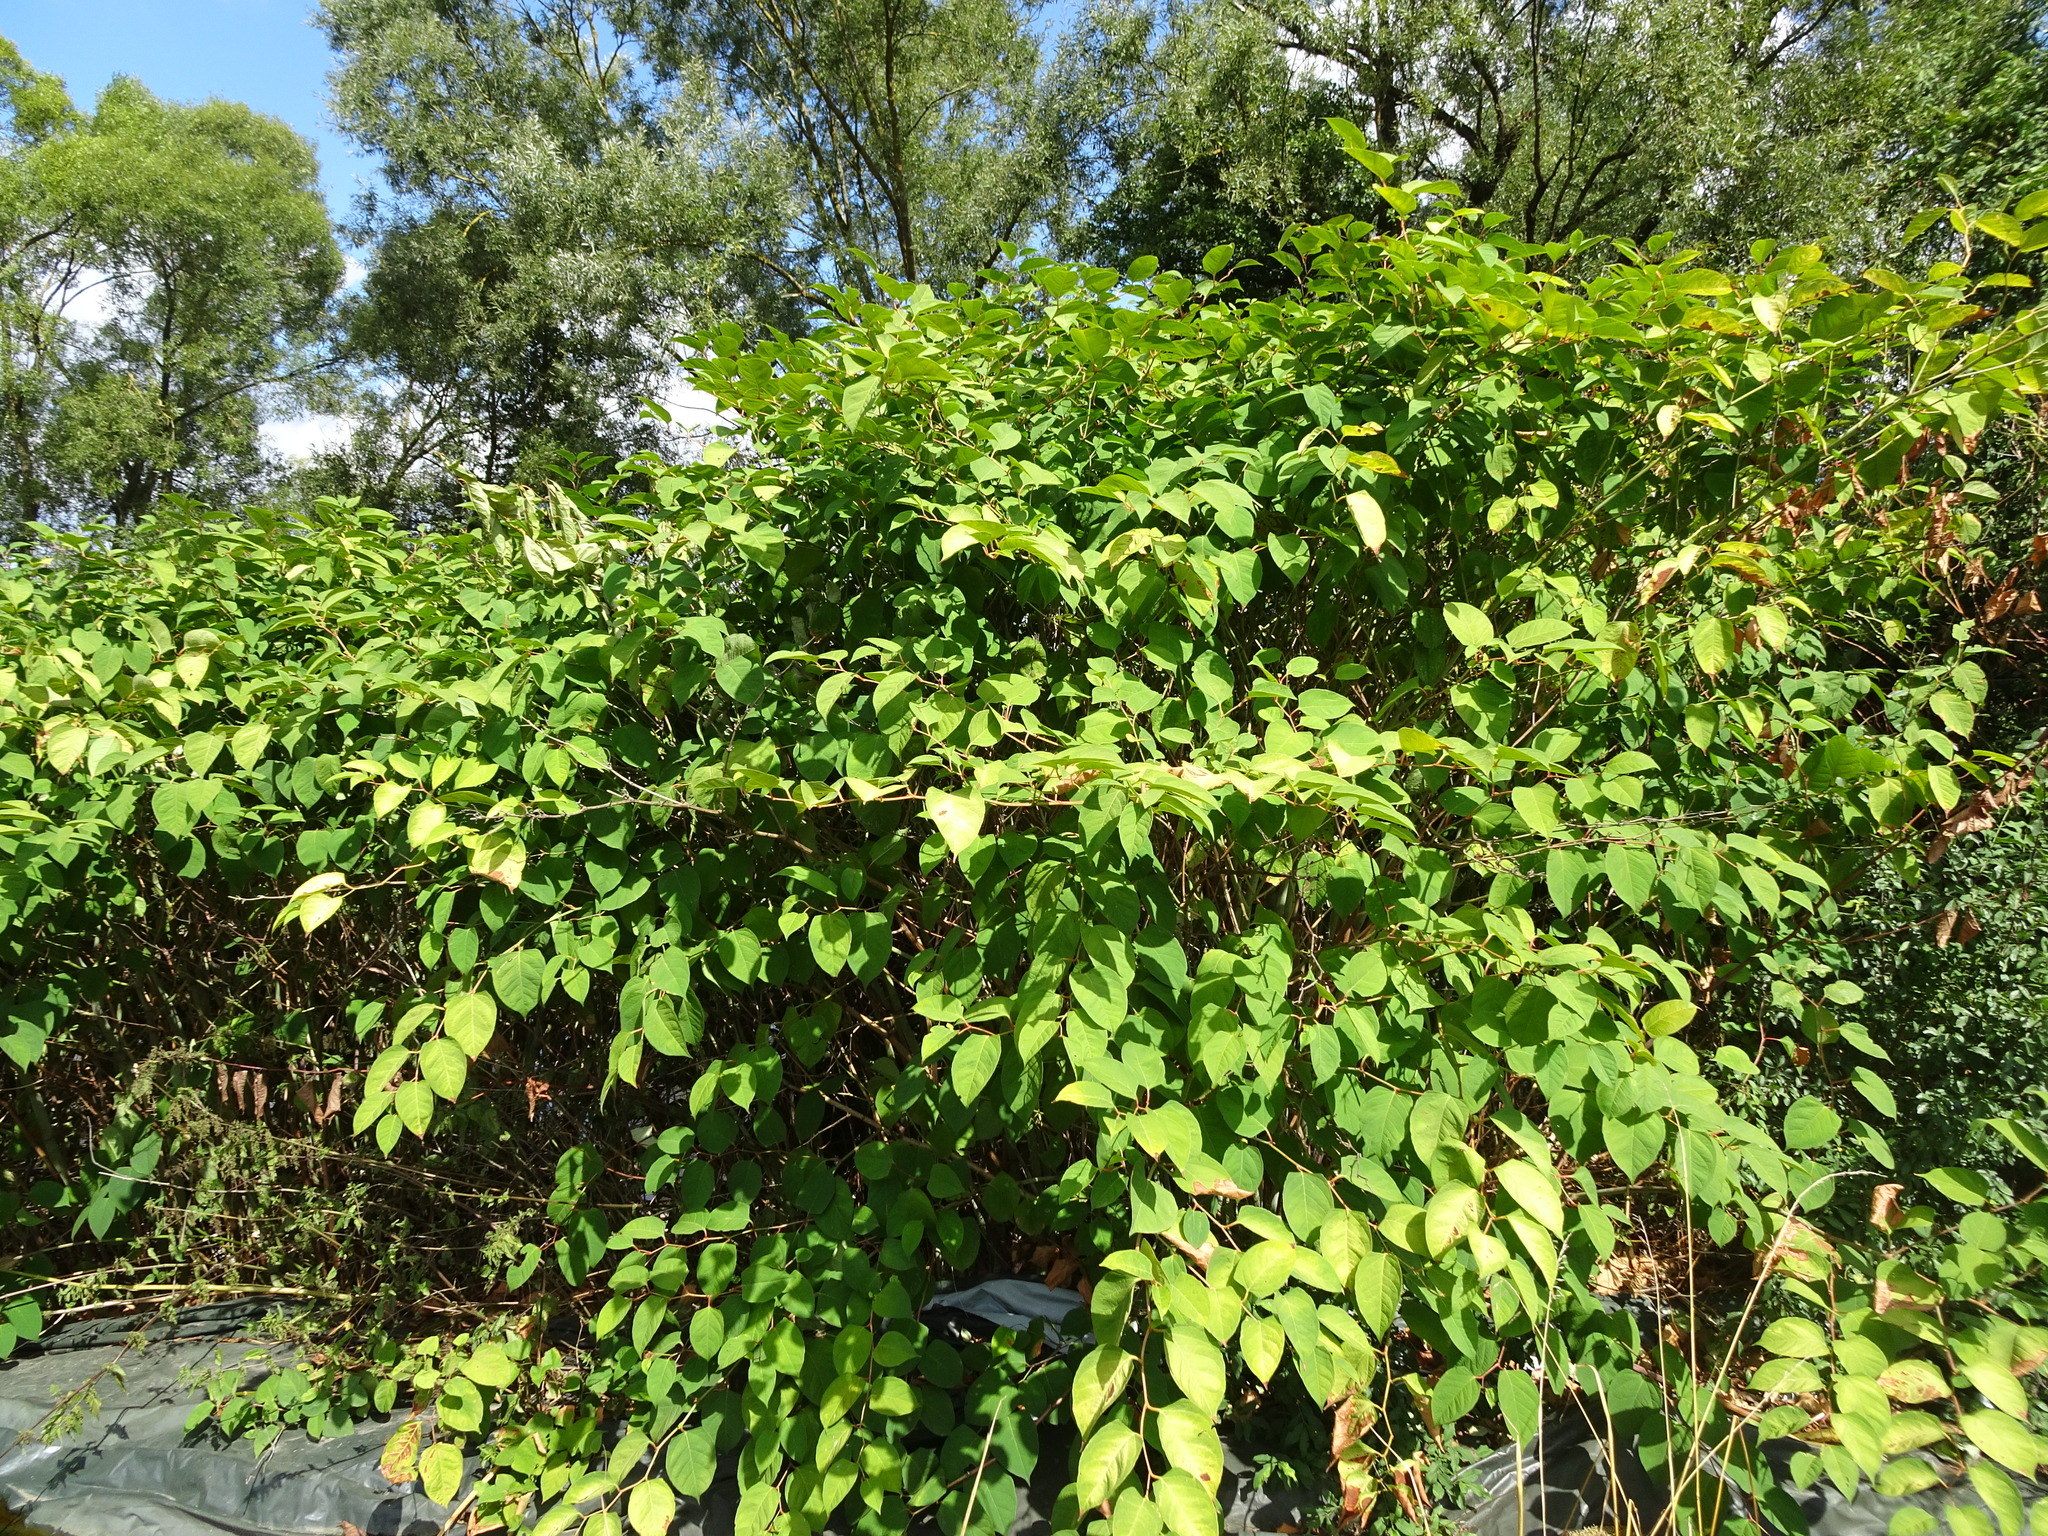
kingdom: Plantae
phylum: Tracheophyta
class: Magnoliopsida
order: Caryophyllales
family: Polygonaceae
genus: Reynoutria
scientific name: Reynoutria japonica
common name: Japanese knotweed
